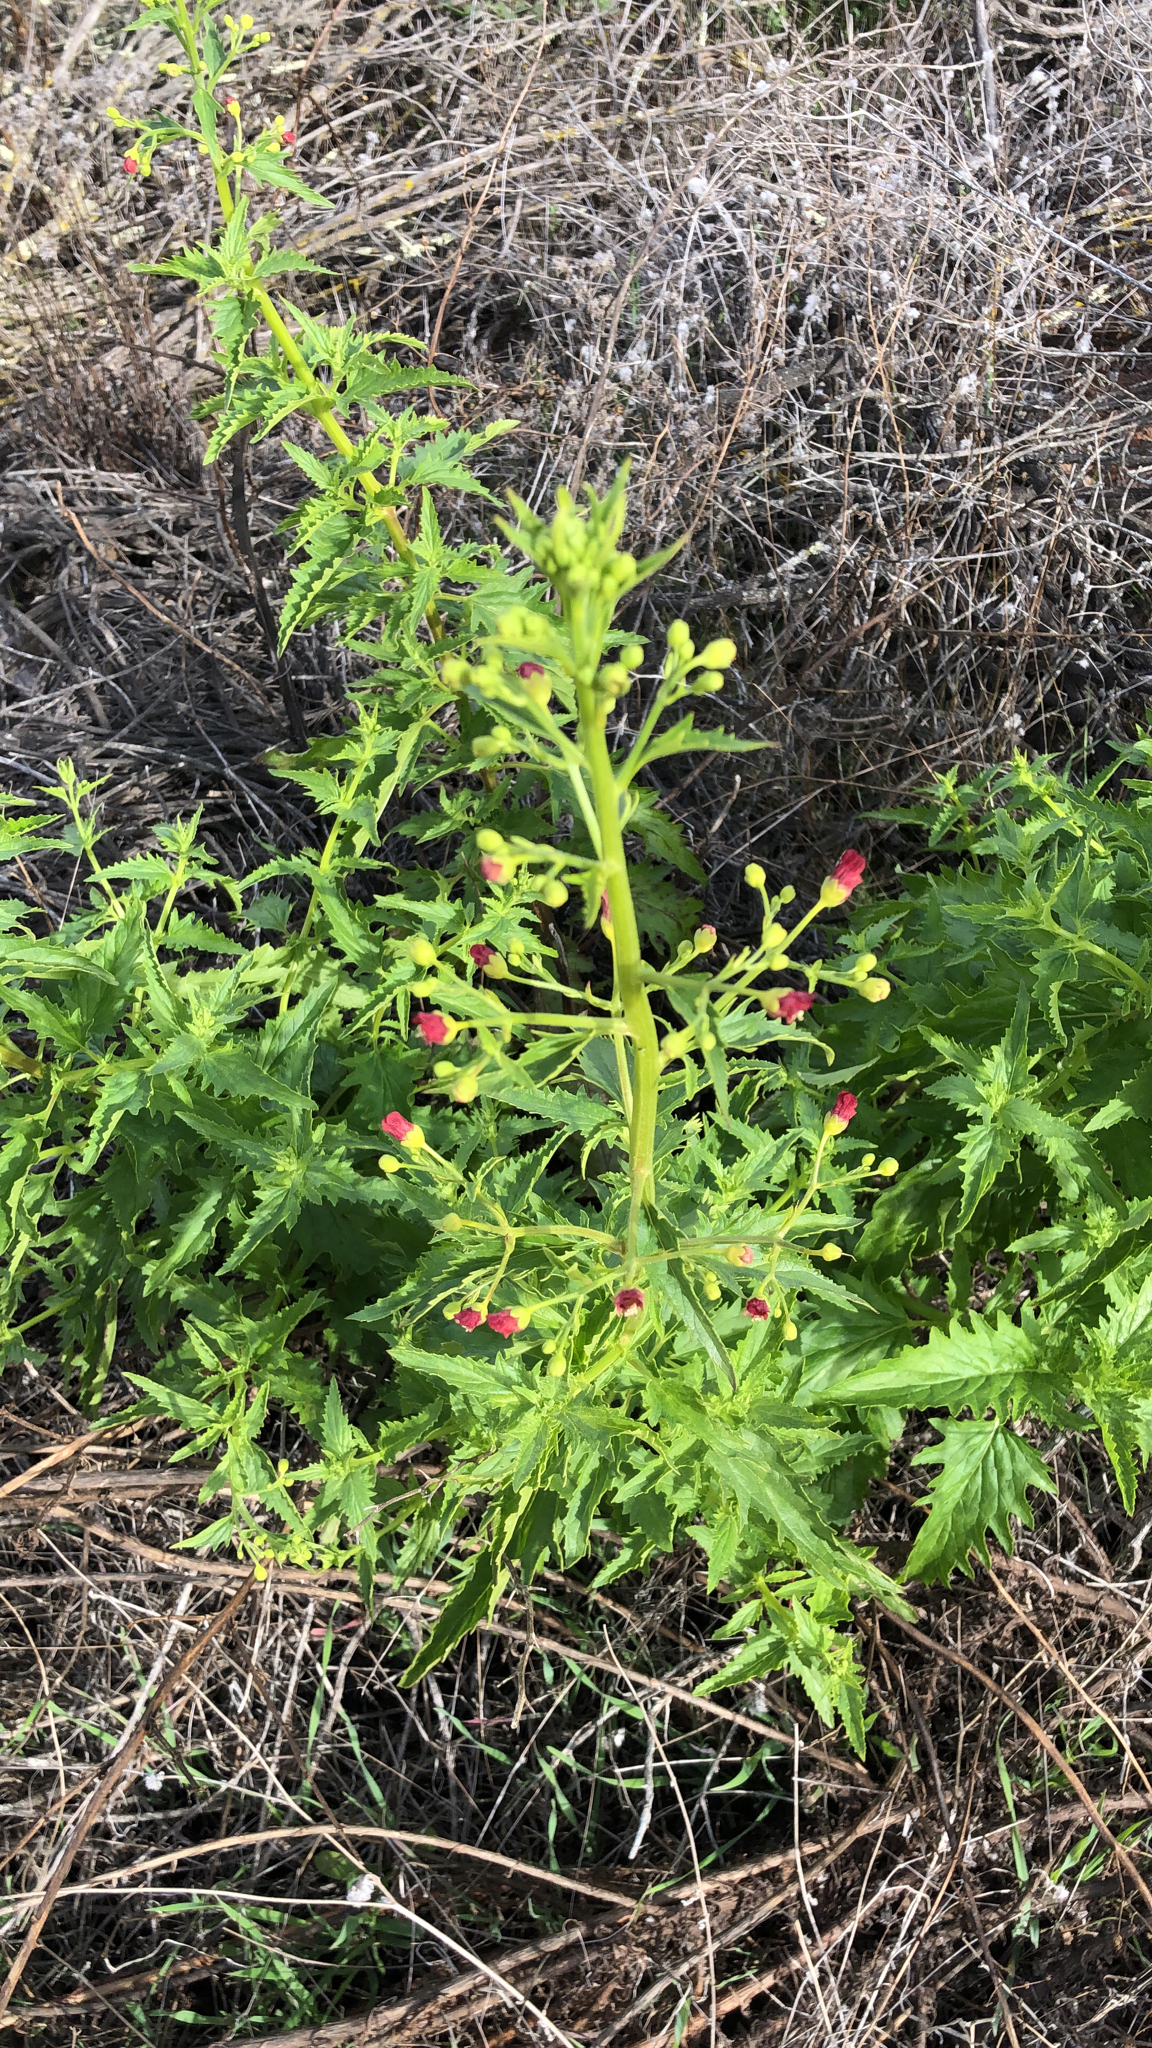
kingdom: Plantae
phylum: Tracheophyta
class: Magnoliopsida
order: Lamiales
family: Scrophulariaceae
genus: Scrophularia
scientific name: Scrophularia californica
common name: California figwort
